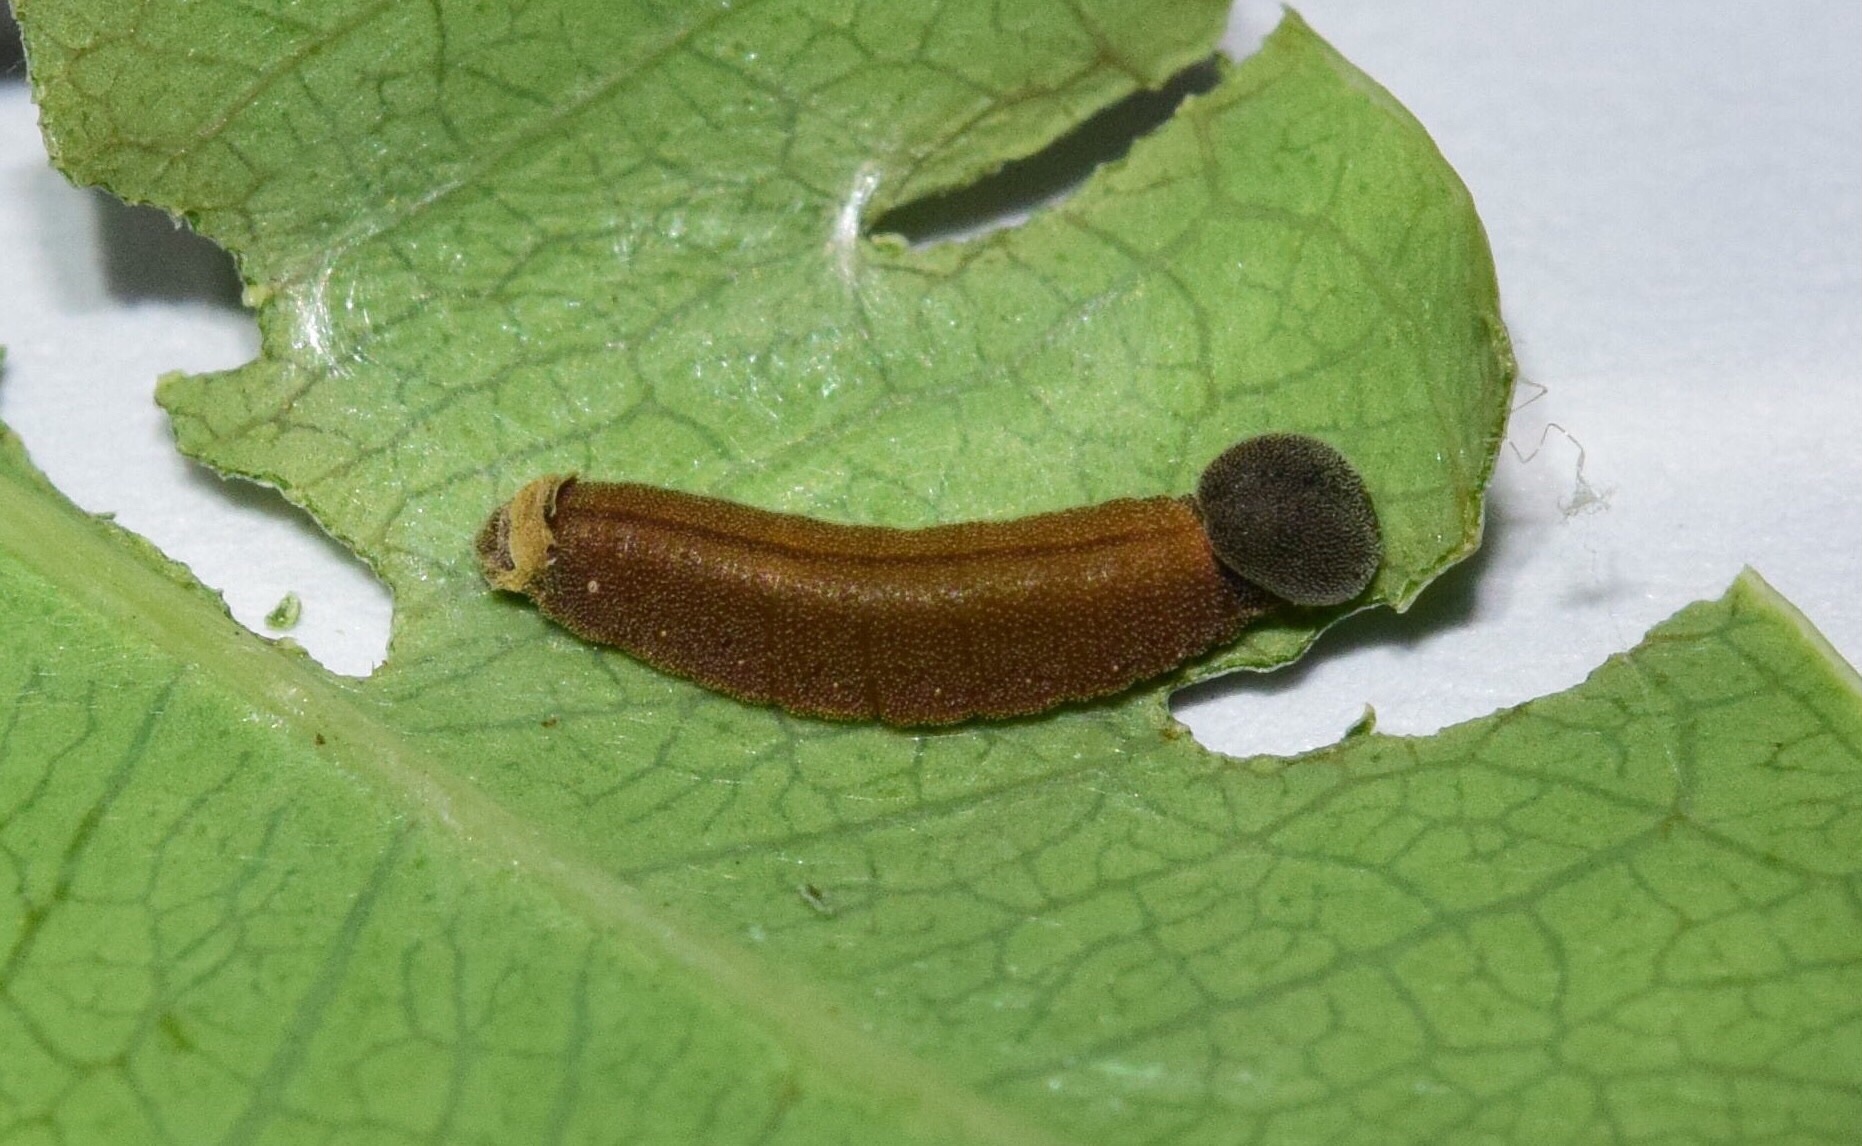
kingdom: Animalia
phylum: Arthropoda
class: Insecta
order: Lepidoptera
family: Hesperiidae
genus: Parosmodes
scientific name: Parosmodes morantii
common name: Morant's orange
